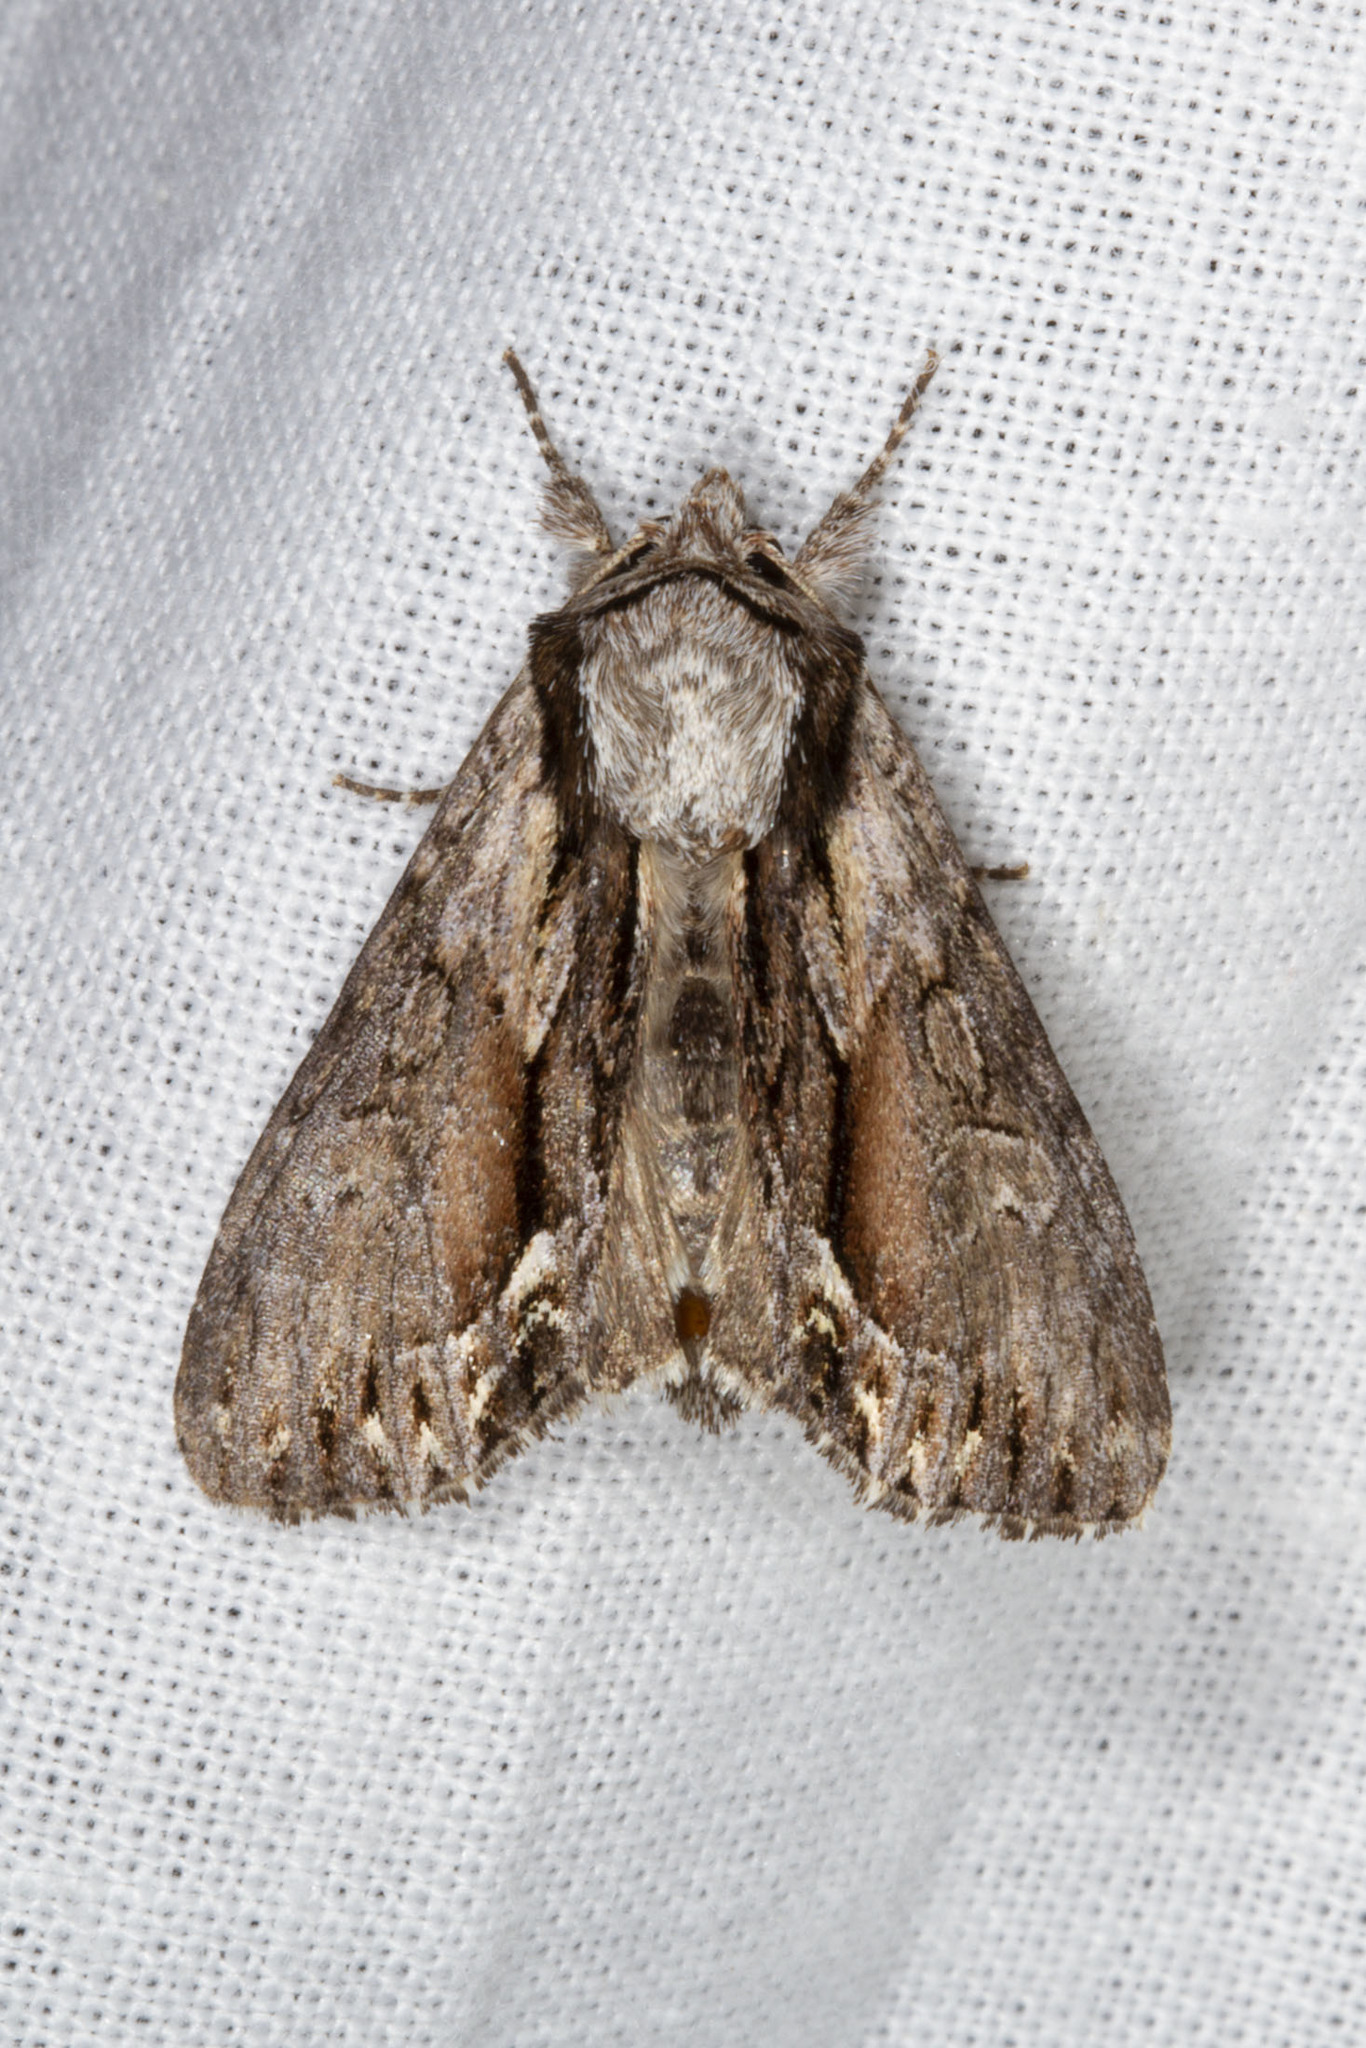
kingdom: Animalia
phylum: Arthropoda
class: Insecta
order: Lepidoptera
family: Noctuidae
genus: Hyppa
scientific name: Hyppa xylinoides
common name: Common hyppa moth
